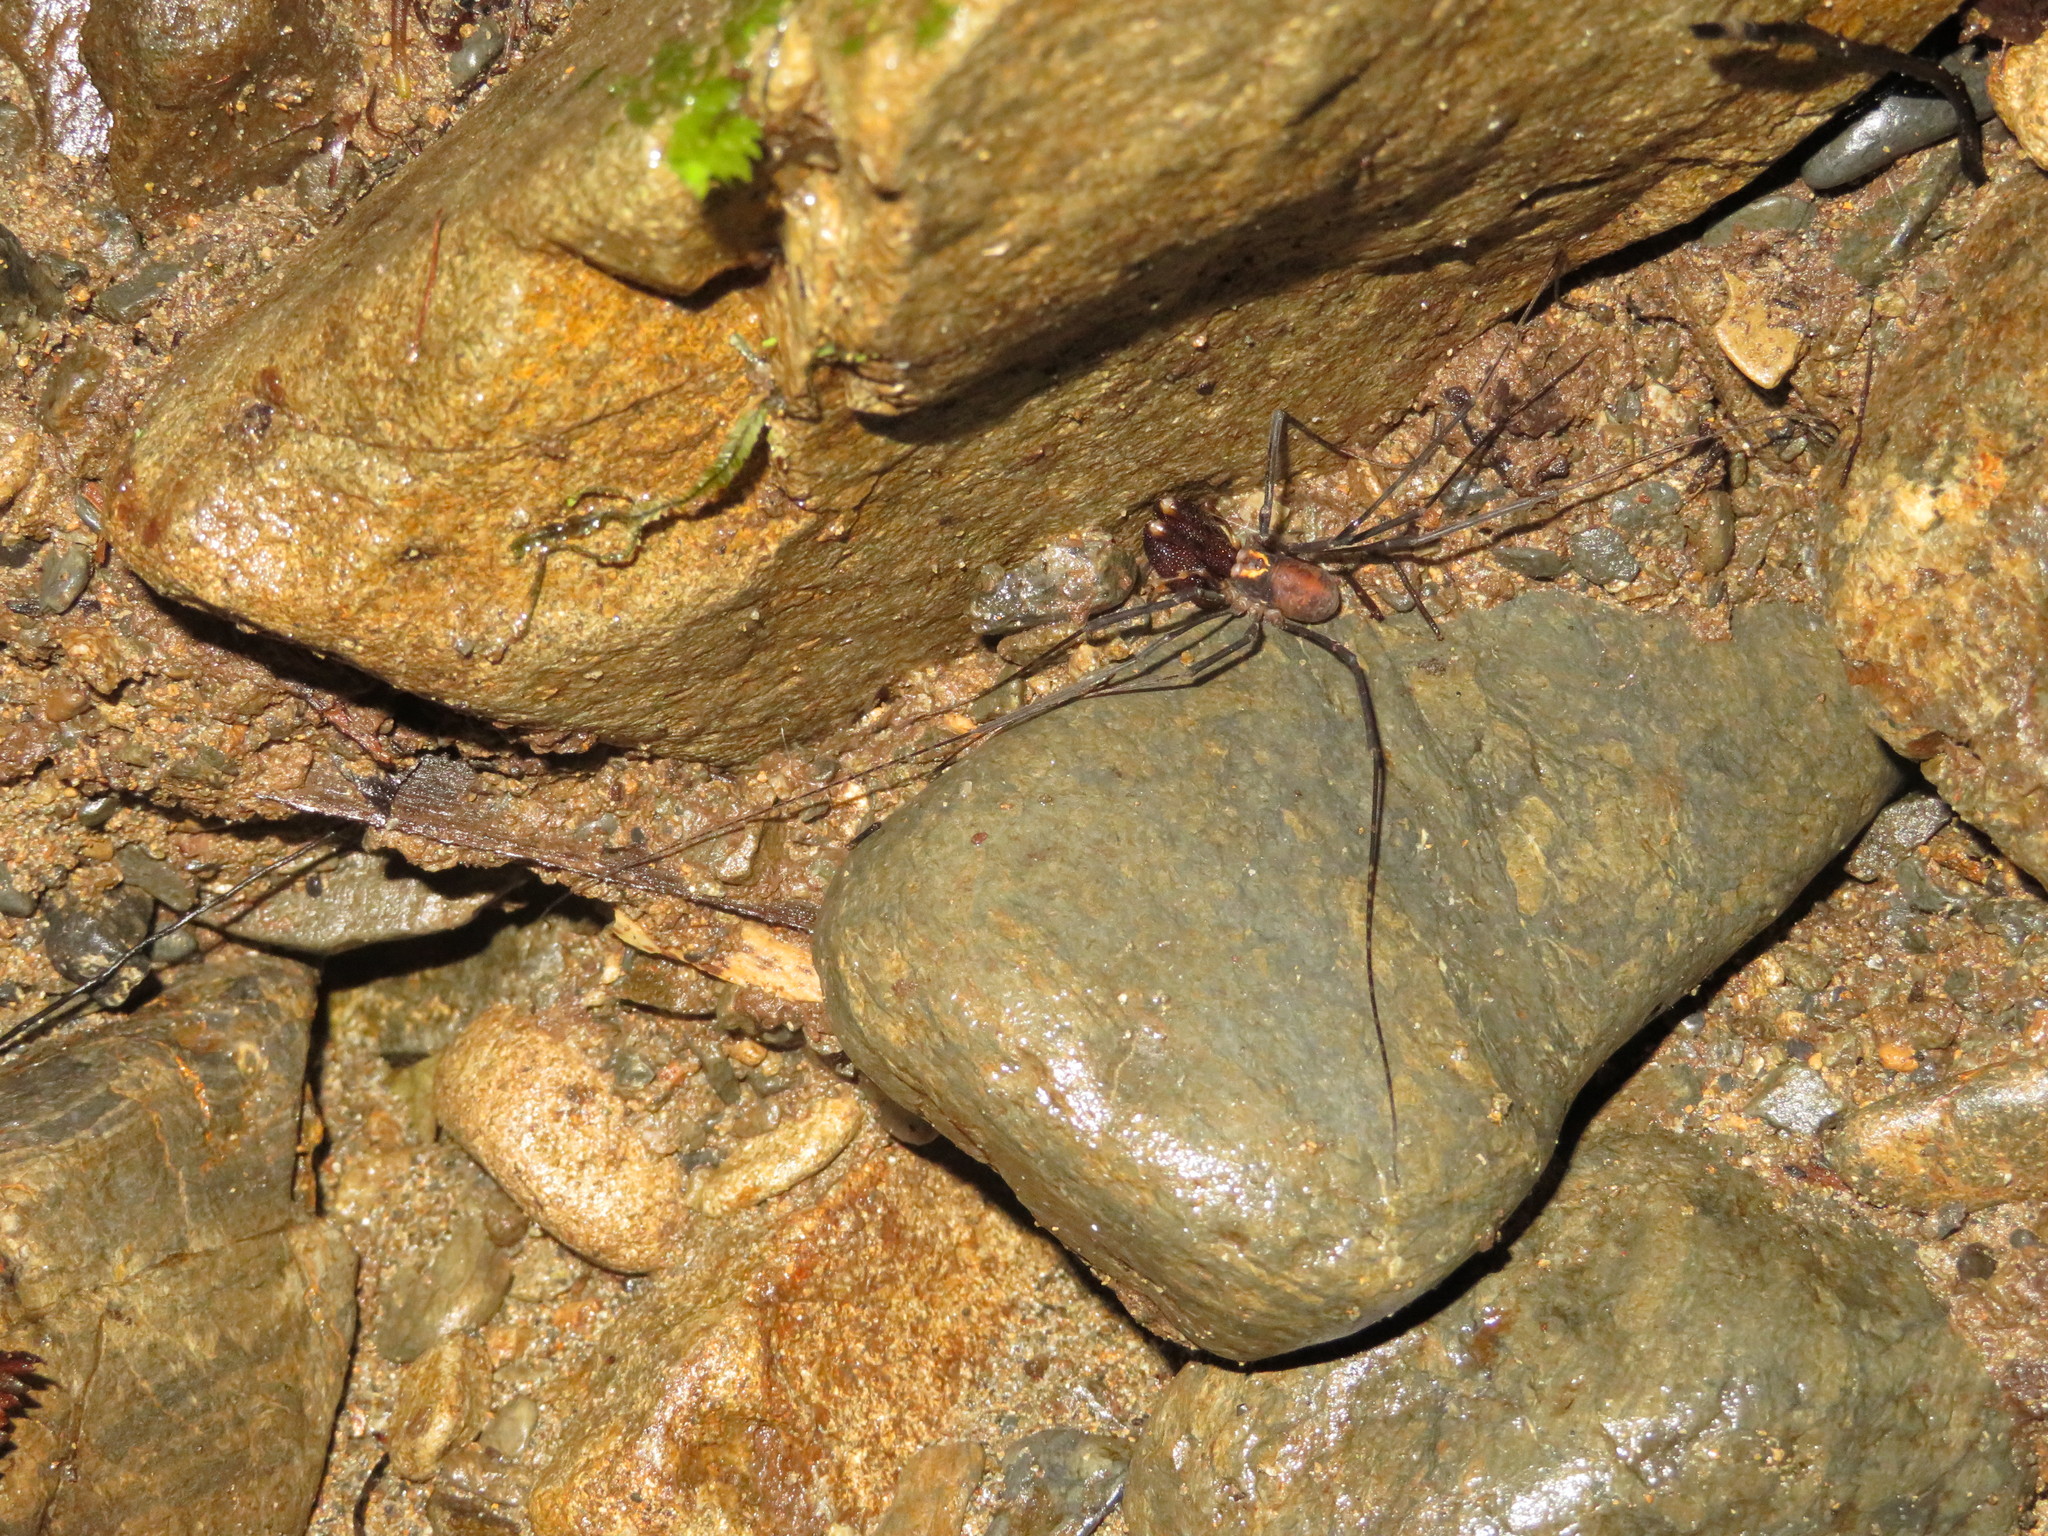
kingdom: Animalia
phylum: Arthropoda
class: Arachnida
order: Opiliones
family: Neopilionidae
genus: Forsteropsalis
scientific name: Forsteropsalis fabulosa
